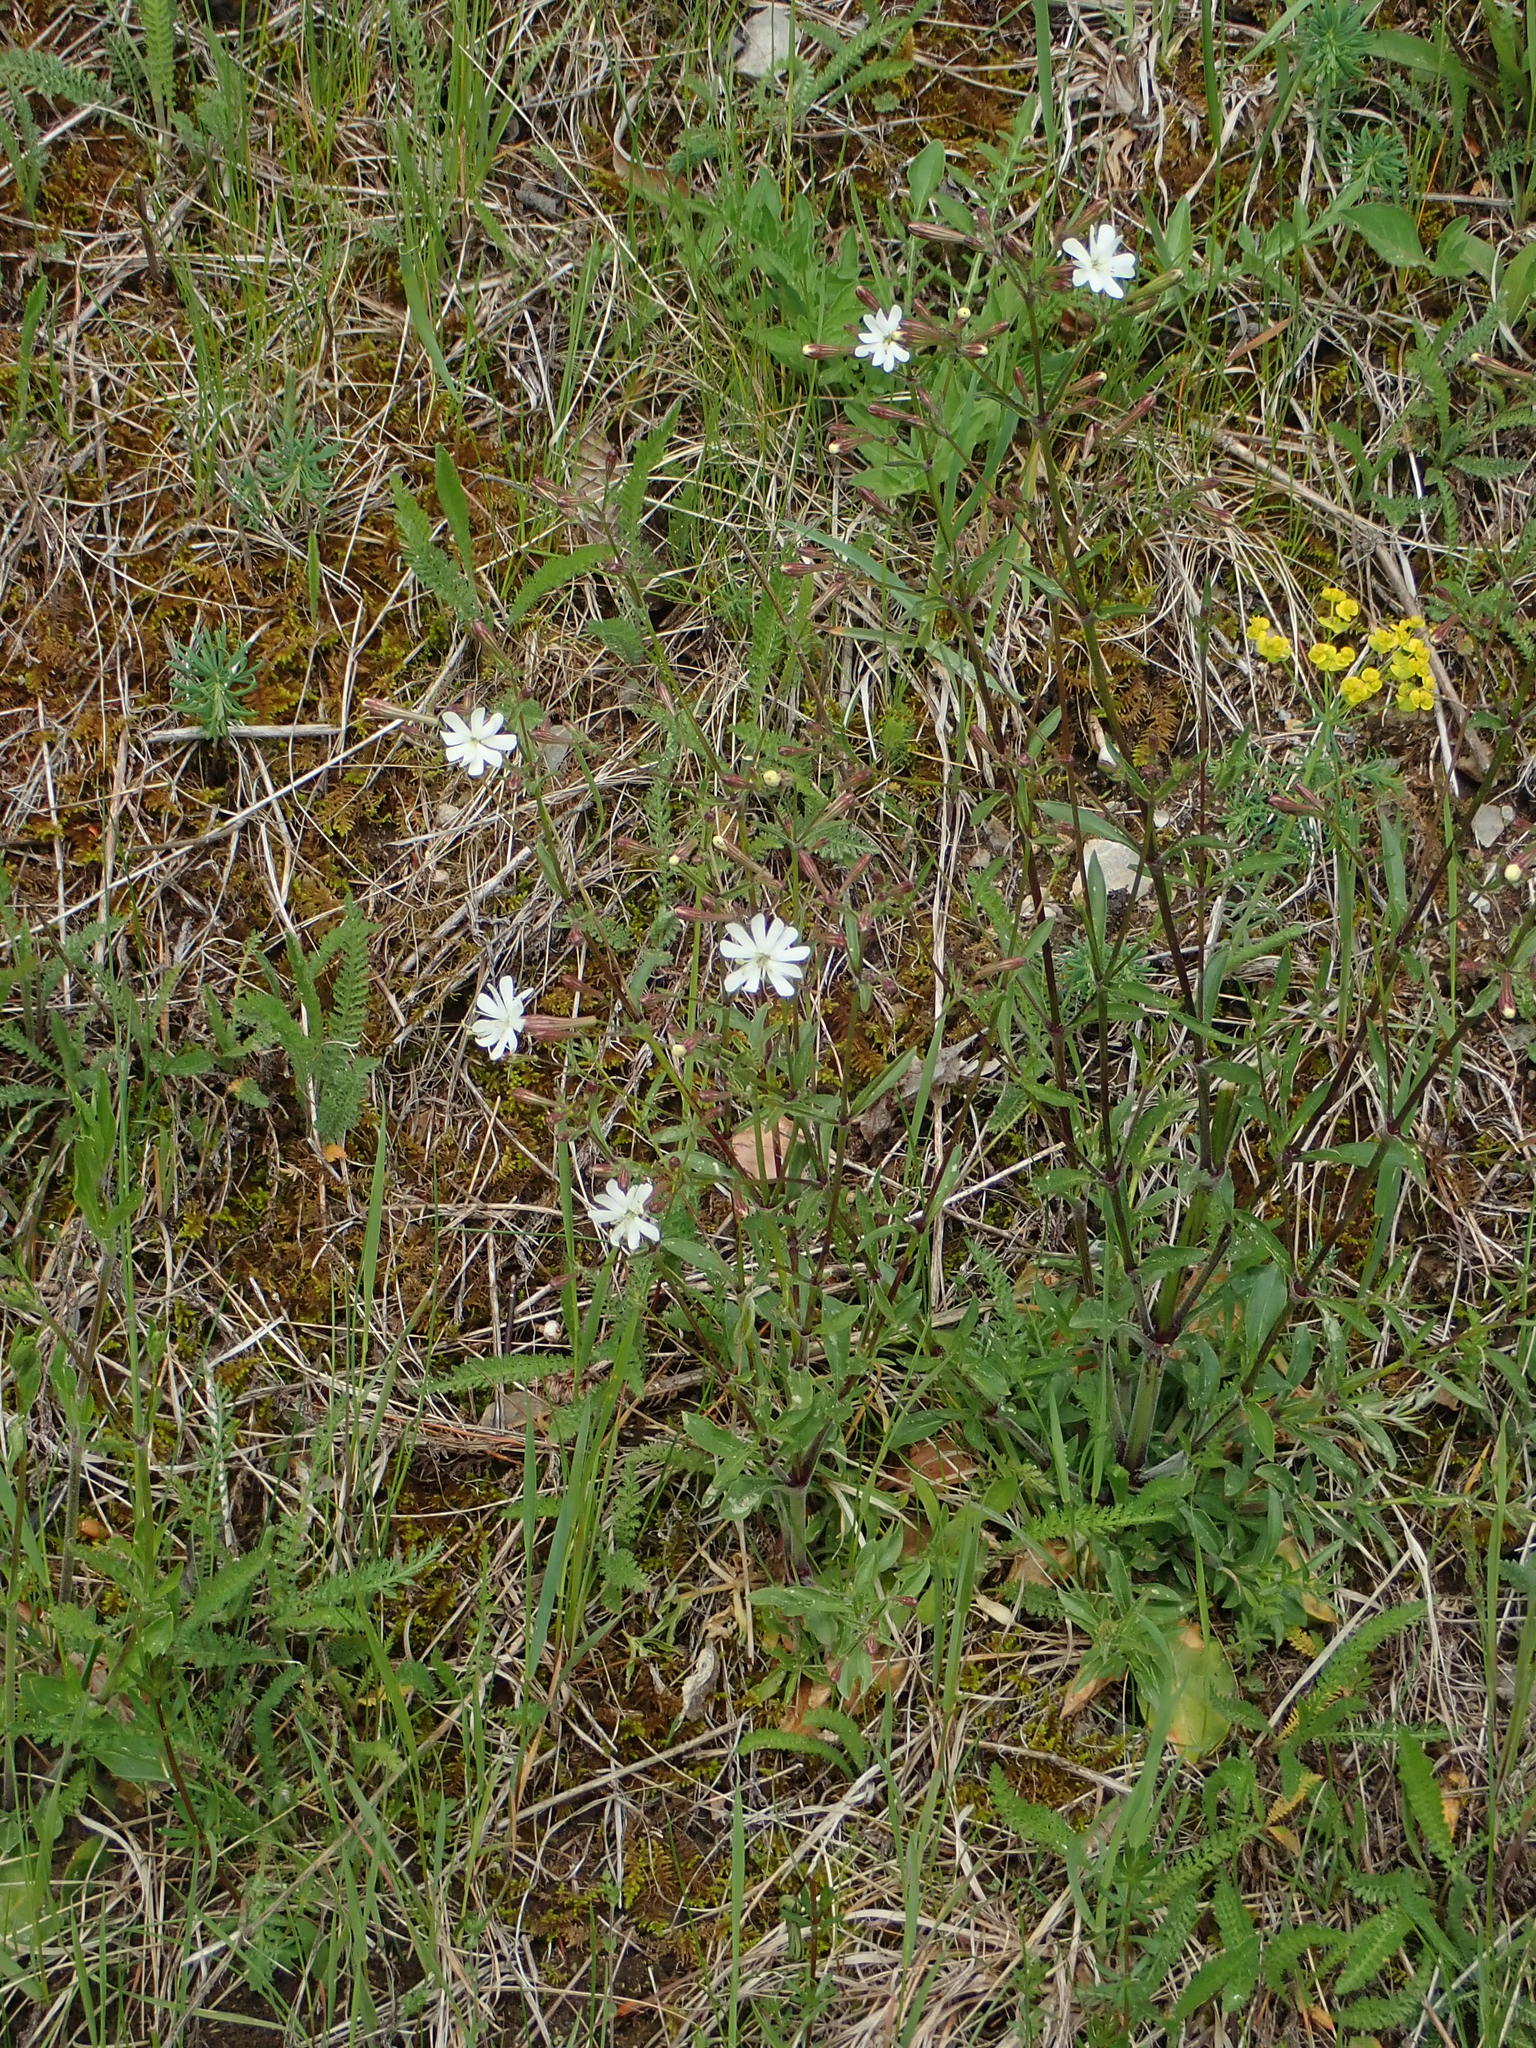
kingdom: Plantae
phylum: Tracheophyta
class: Magnoliopsida
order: Caryophyllales
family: Caryophyllaceae
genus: Silene
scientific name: Silene nemoralis
